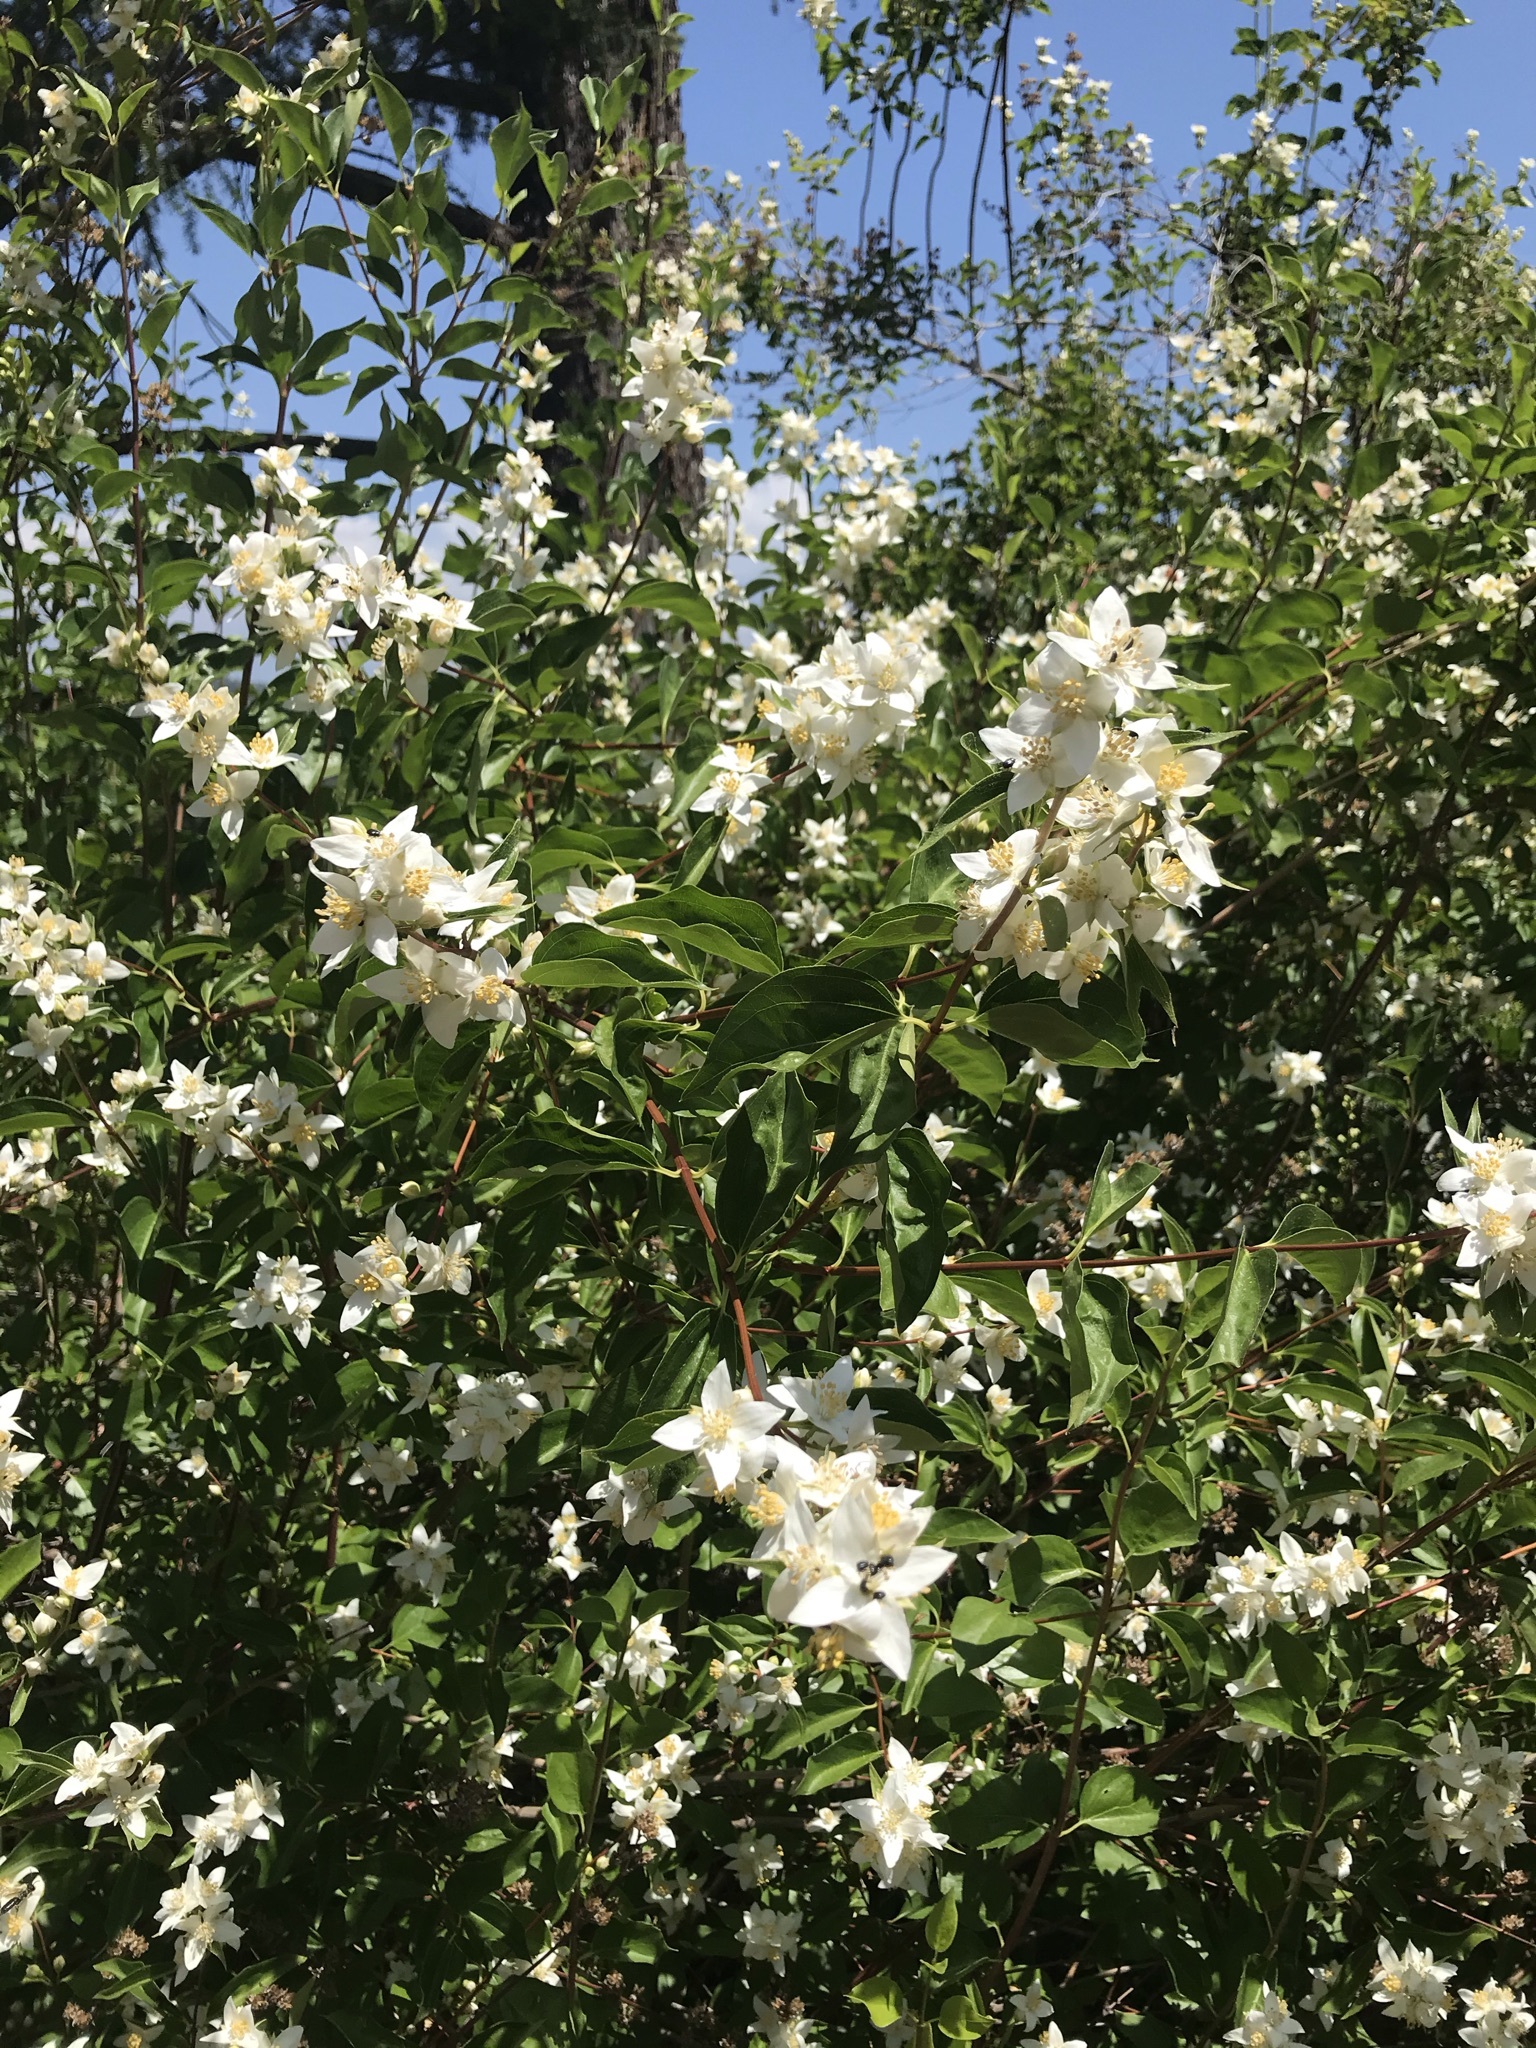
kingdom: Plantae
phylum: Tracheophyta
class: Magnoliopsida
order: Cornales
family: Hydrangeaceae
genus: Philadelphus
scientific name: Philadelphus lewisii
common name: Lewis's mock orange
